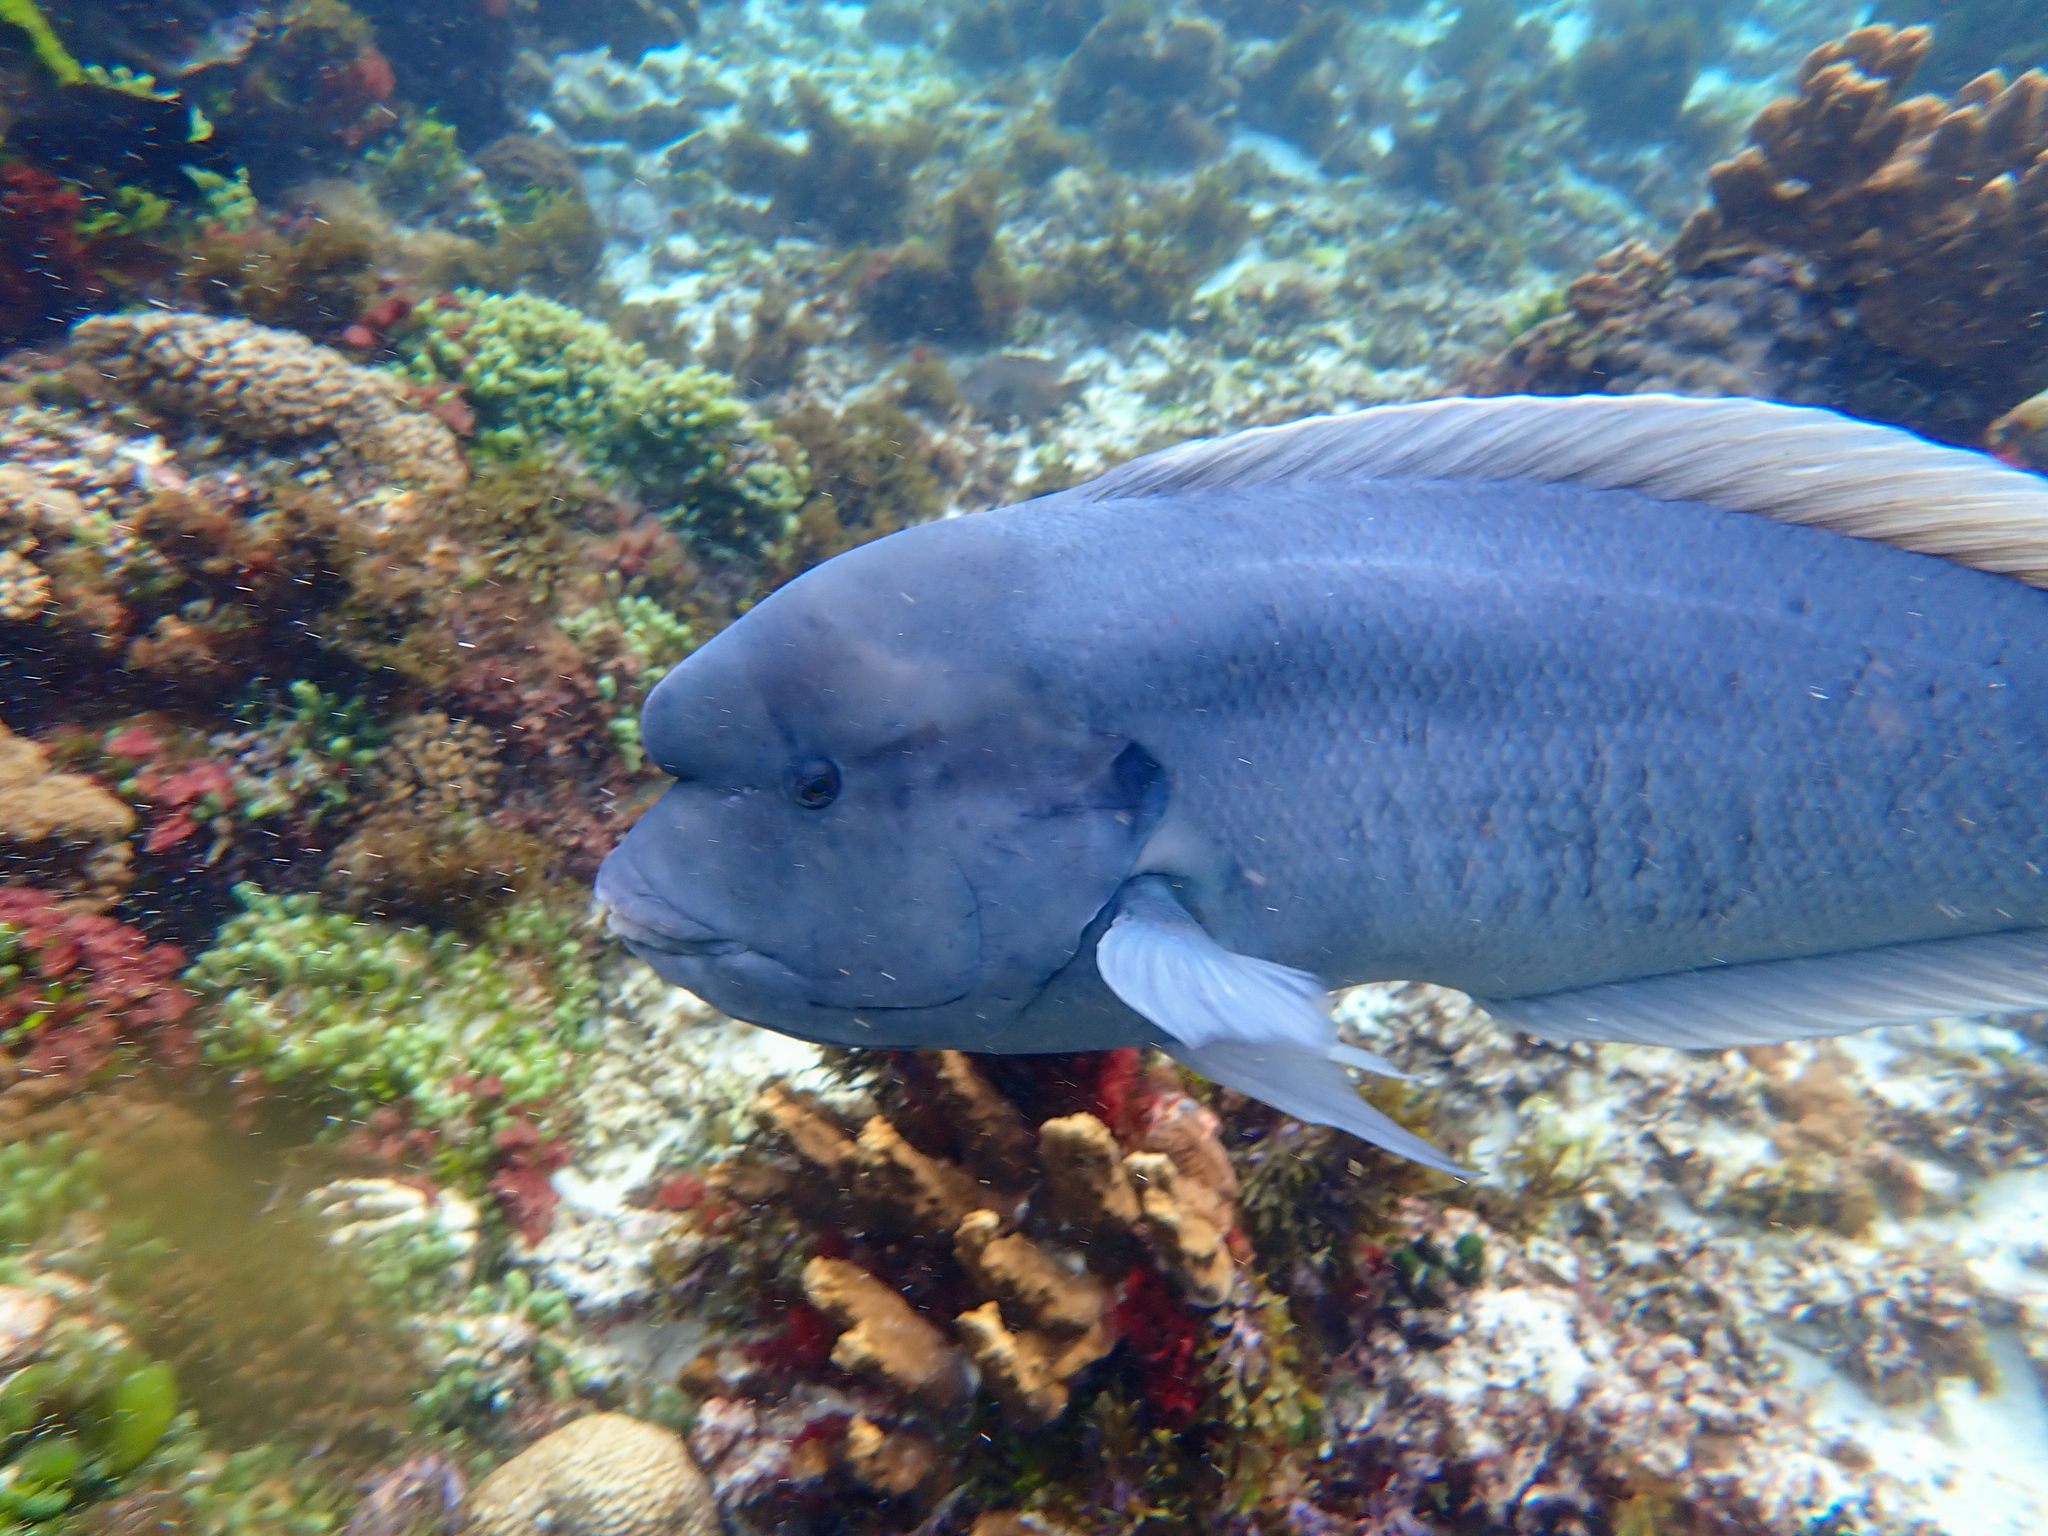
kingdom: Animalia
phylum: Chordata
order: Perciformes
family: Labridae
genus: Coris
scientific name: Coris bulbifrons
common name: Doubleheader
